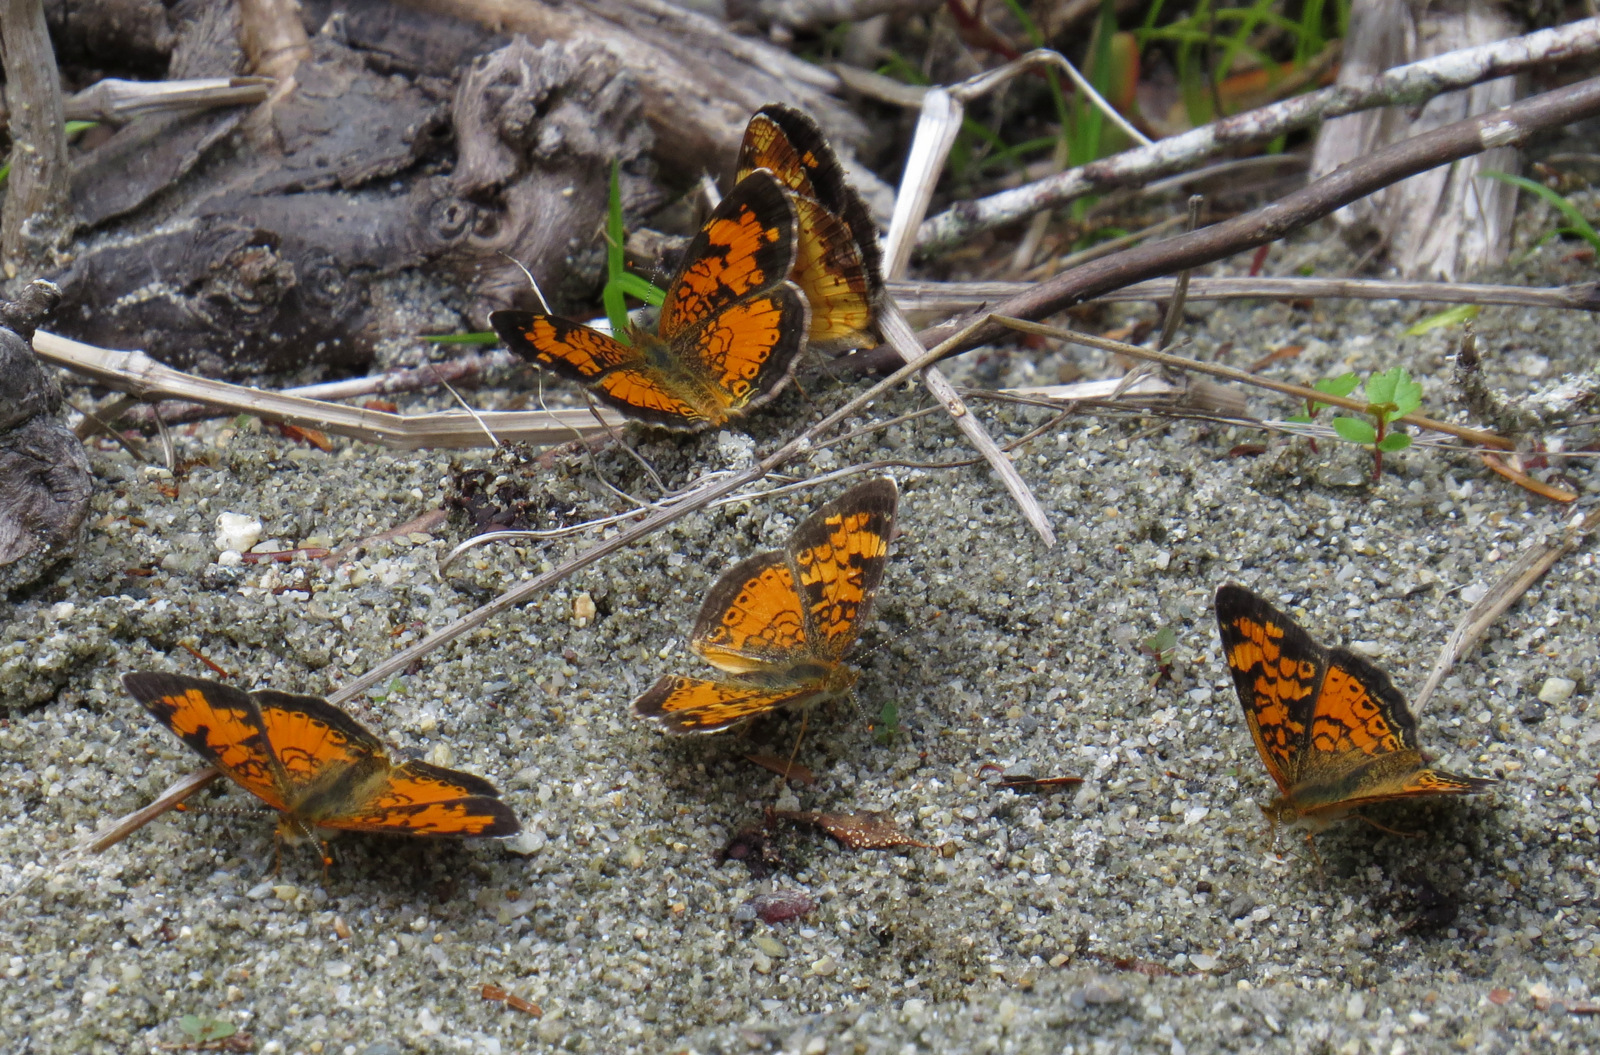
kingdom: Animalia
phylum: Arthropoda
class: Insecta
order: Lepidoptera
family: Nymphalidae
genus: Phyciodes
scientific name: Phyciodes tharos
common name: Pearl crescent
